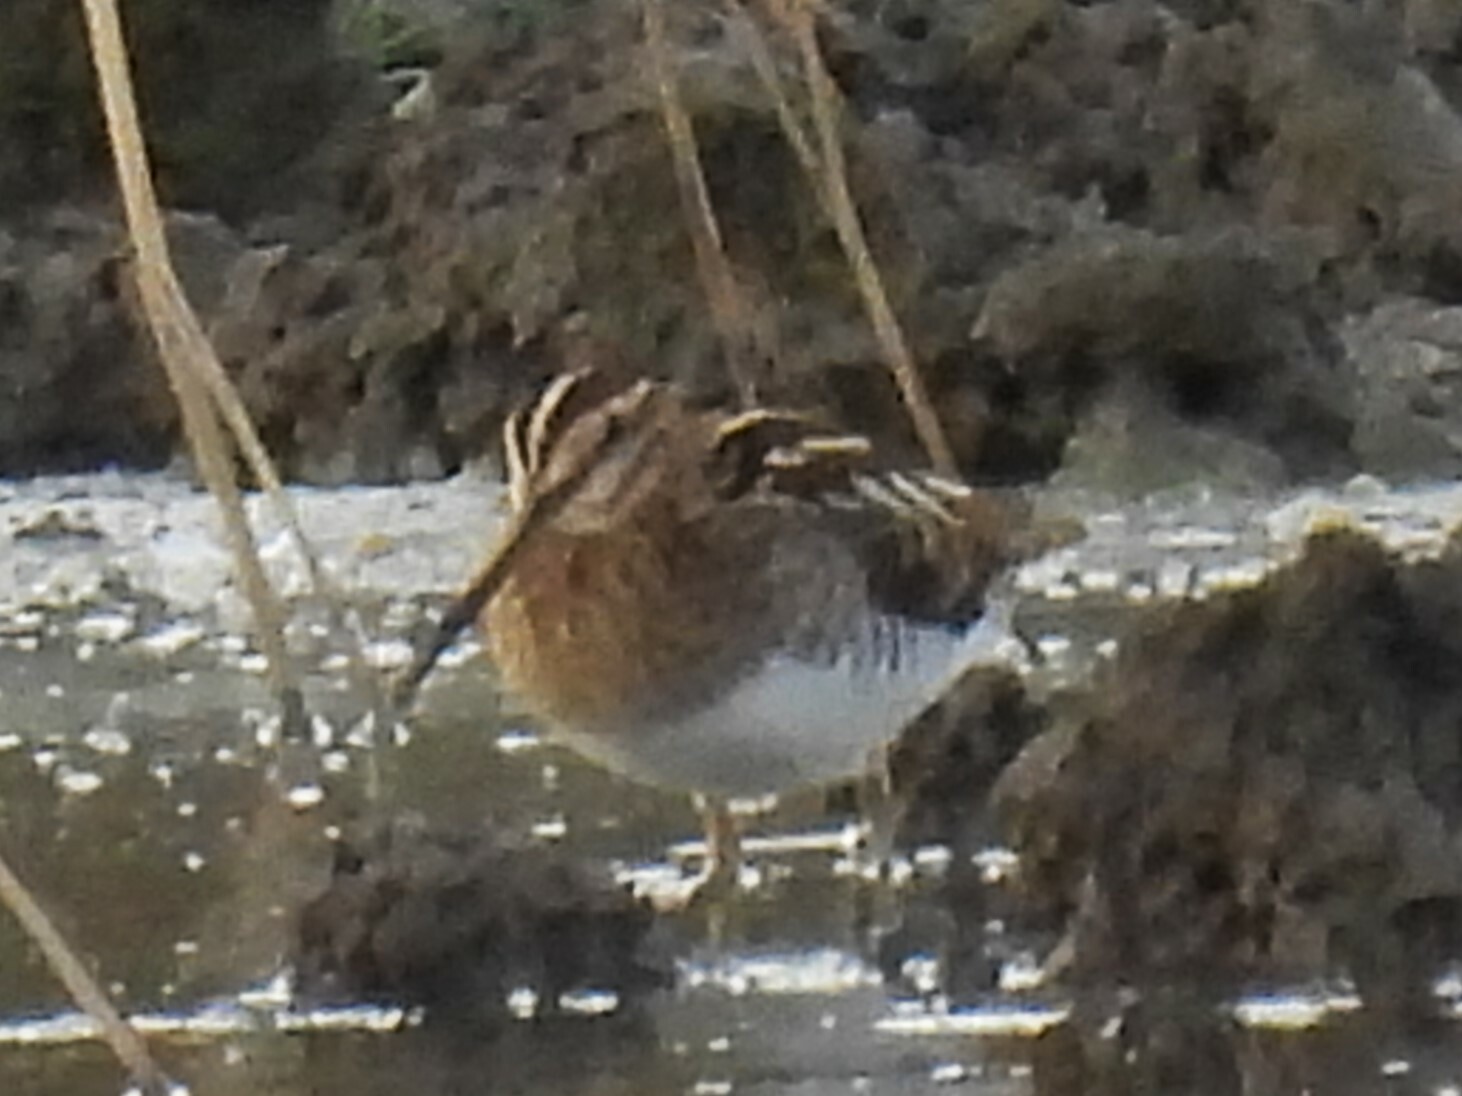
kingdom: Animalia
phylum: Chordata
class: Aves
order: Charadriiformes
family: Scolopacidae
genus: Gallinago
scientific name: Gallinago gallinago
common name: Common snipe
